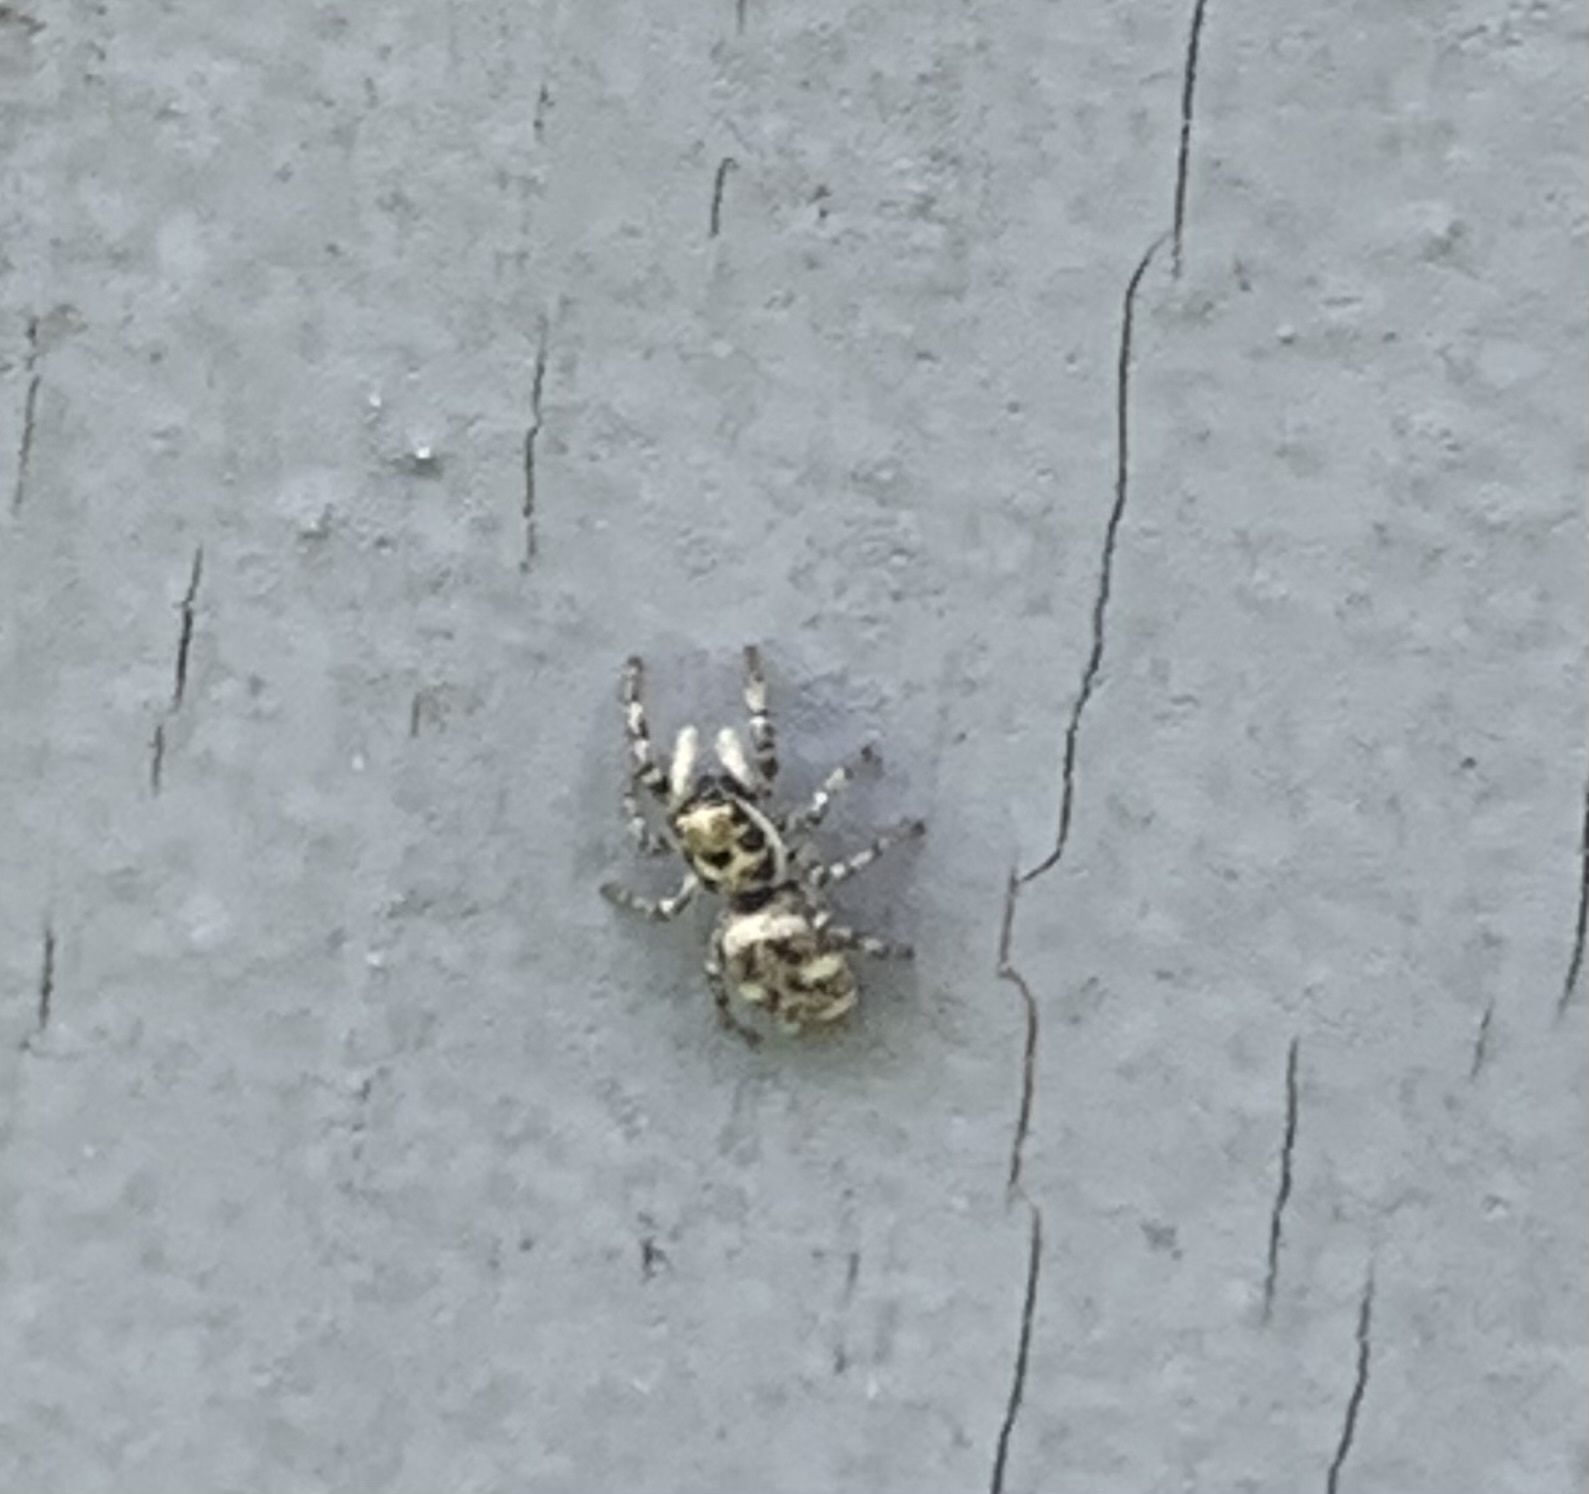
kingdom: Animalia
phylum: Arthropoda
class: Arachnida
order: Araneae
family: Salticidae
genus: Salticus
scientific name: Salticus scenicus
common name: Zebra jumper
